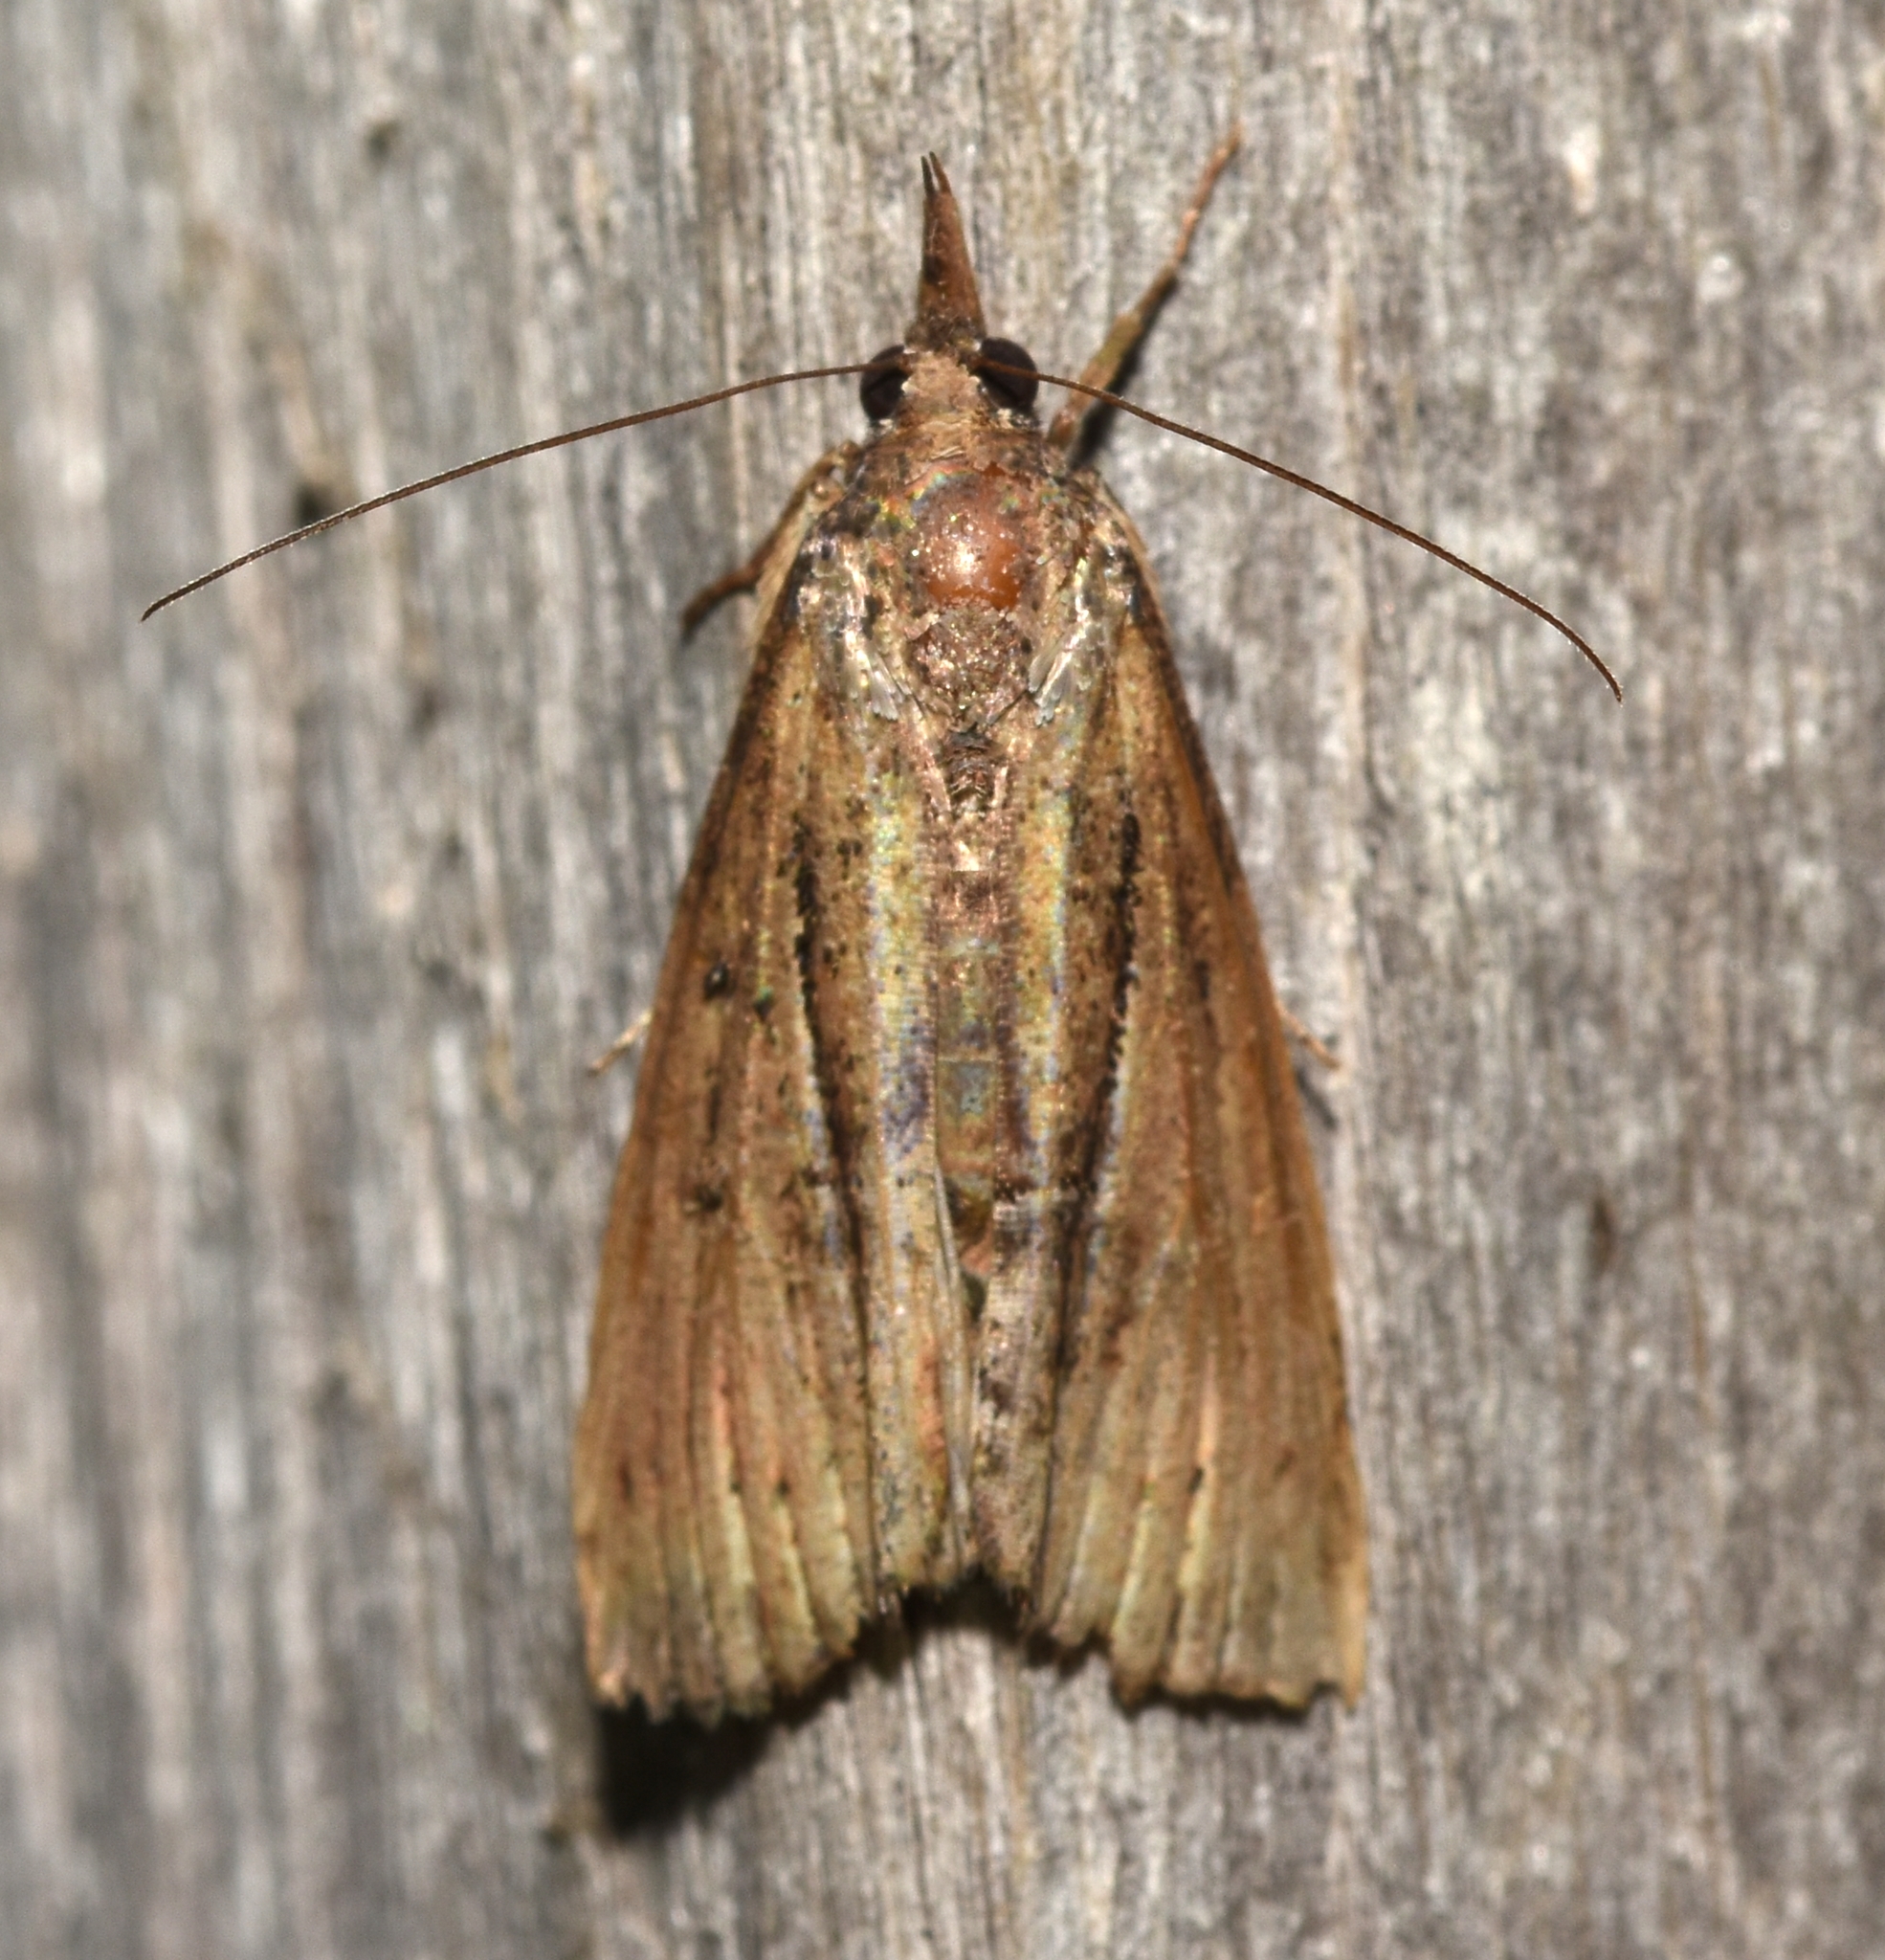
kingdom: Animalia
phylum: Arthropoda
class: Insecta
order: Lepidoptera
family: Erebidae
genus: Hypena
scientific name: Hypena scabra
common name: Green cloverworm
